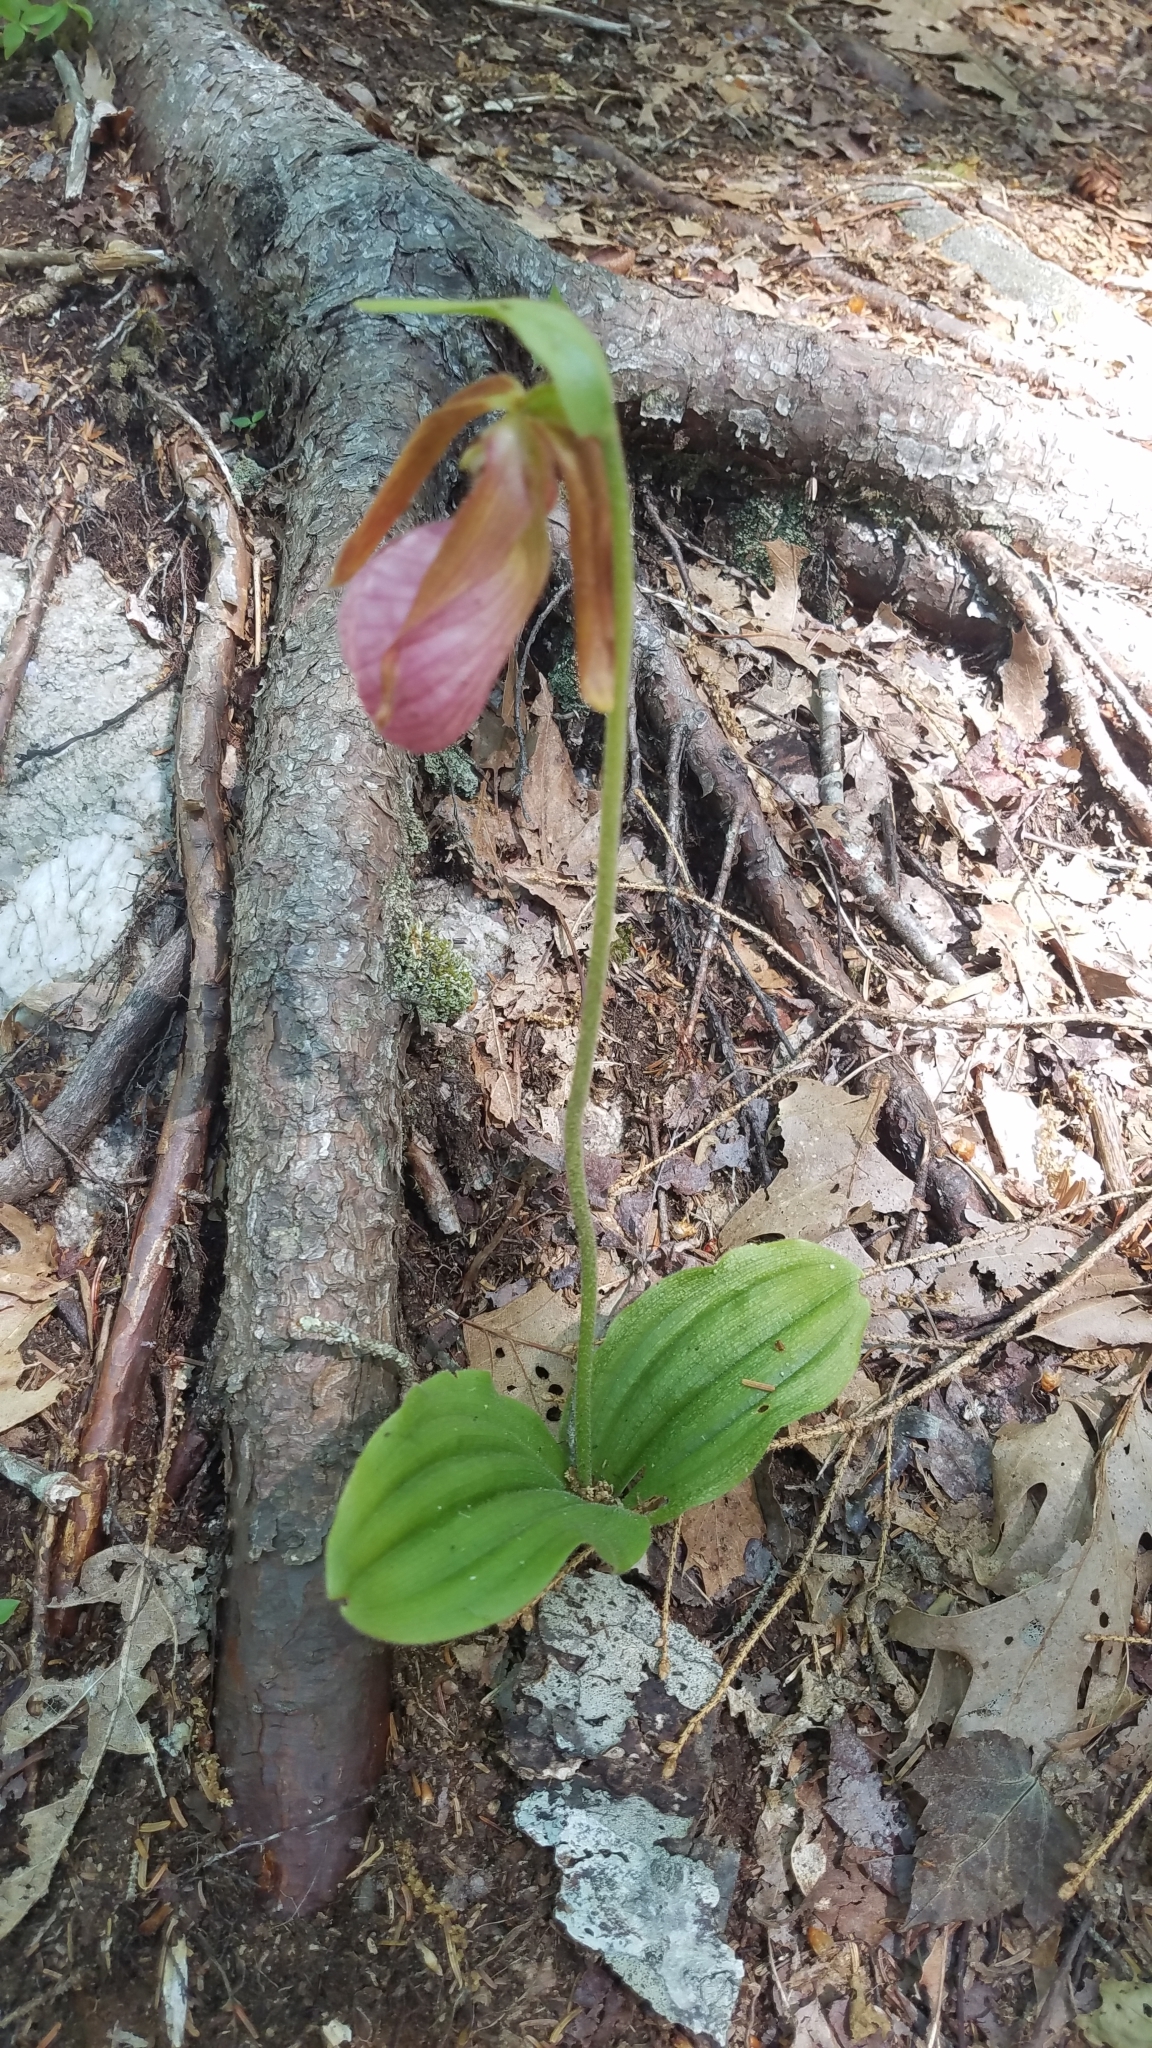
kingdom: Plantae
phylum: Tracheophyta
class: Liliopsida
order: Asparagales
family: Orchidaceae
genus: Cypripedium
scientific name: Cypripedium acaule
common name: Pink lady's-slipper
